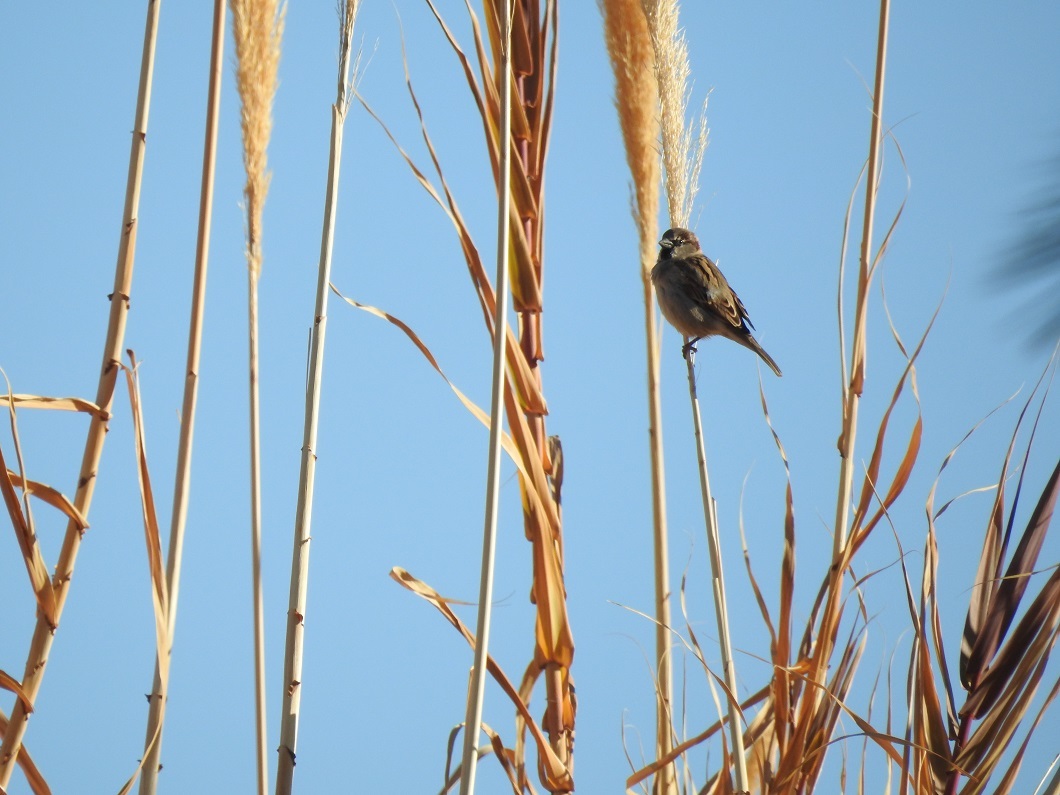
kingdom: Animalia
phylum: Chordata
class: Aves
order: Passeriformes
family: Passeridae
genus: Passer
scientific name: Passer domesticus
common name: House sparrow
